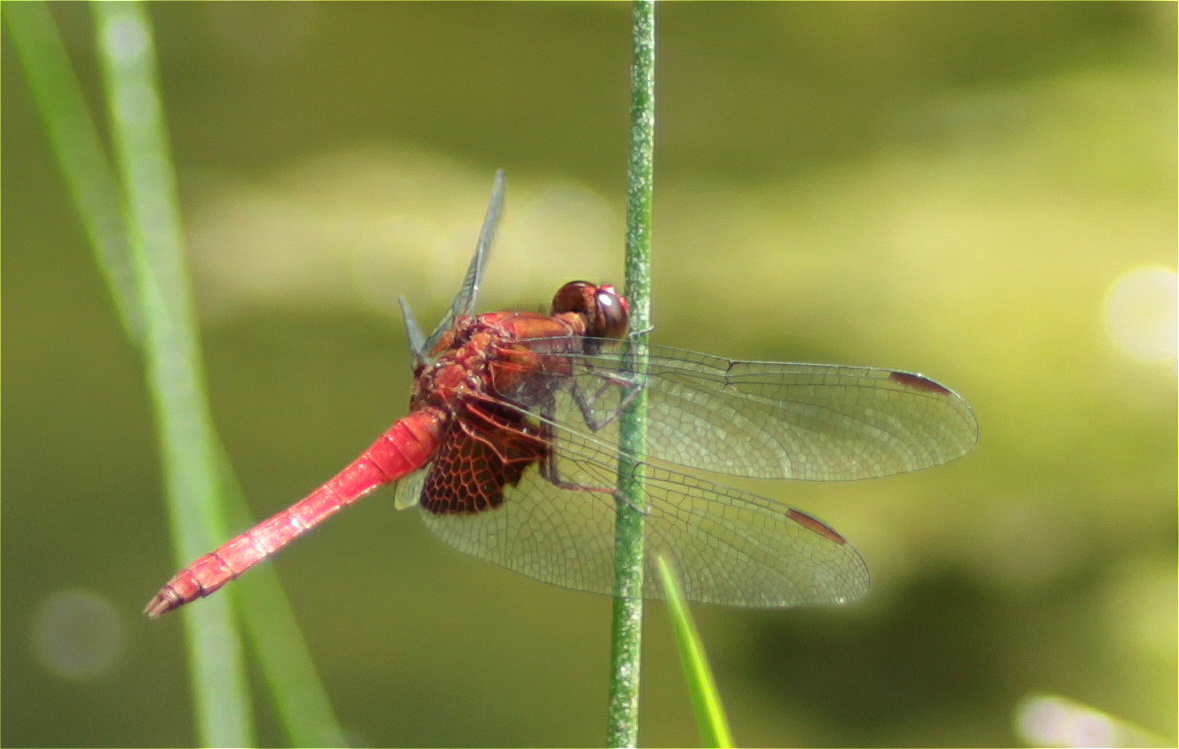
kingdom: Animalia
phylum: Arthropoda
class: Insecta
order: Odonata
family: Libellulidae
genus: Erythrodiplax
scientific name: Erythrodiplax ines
